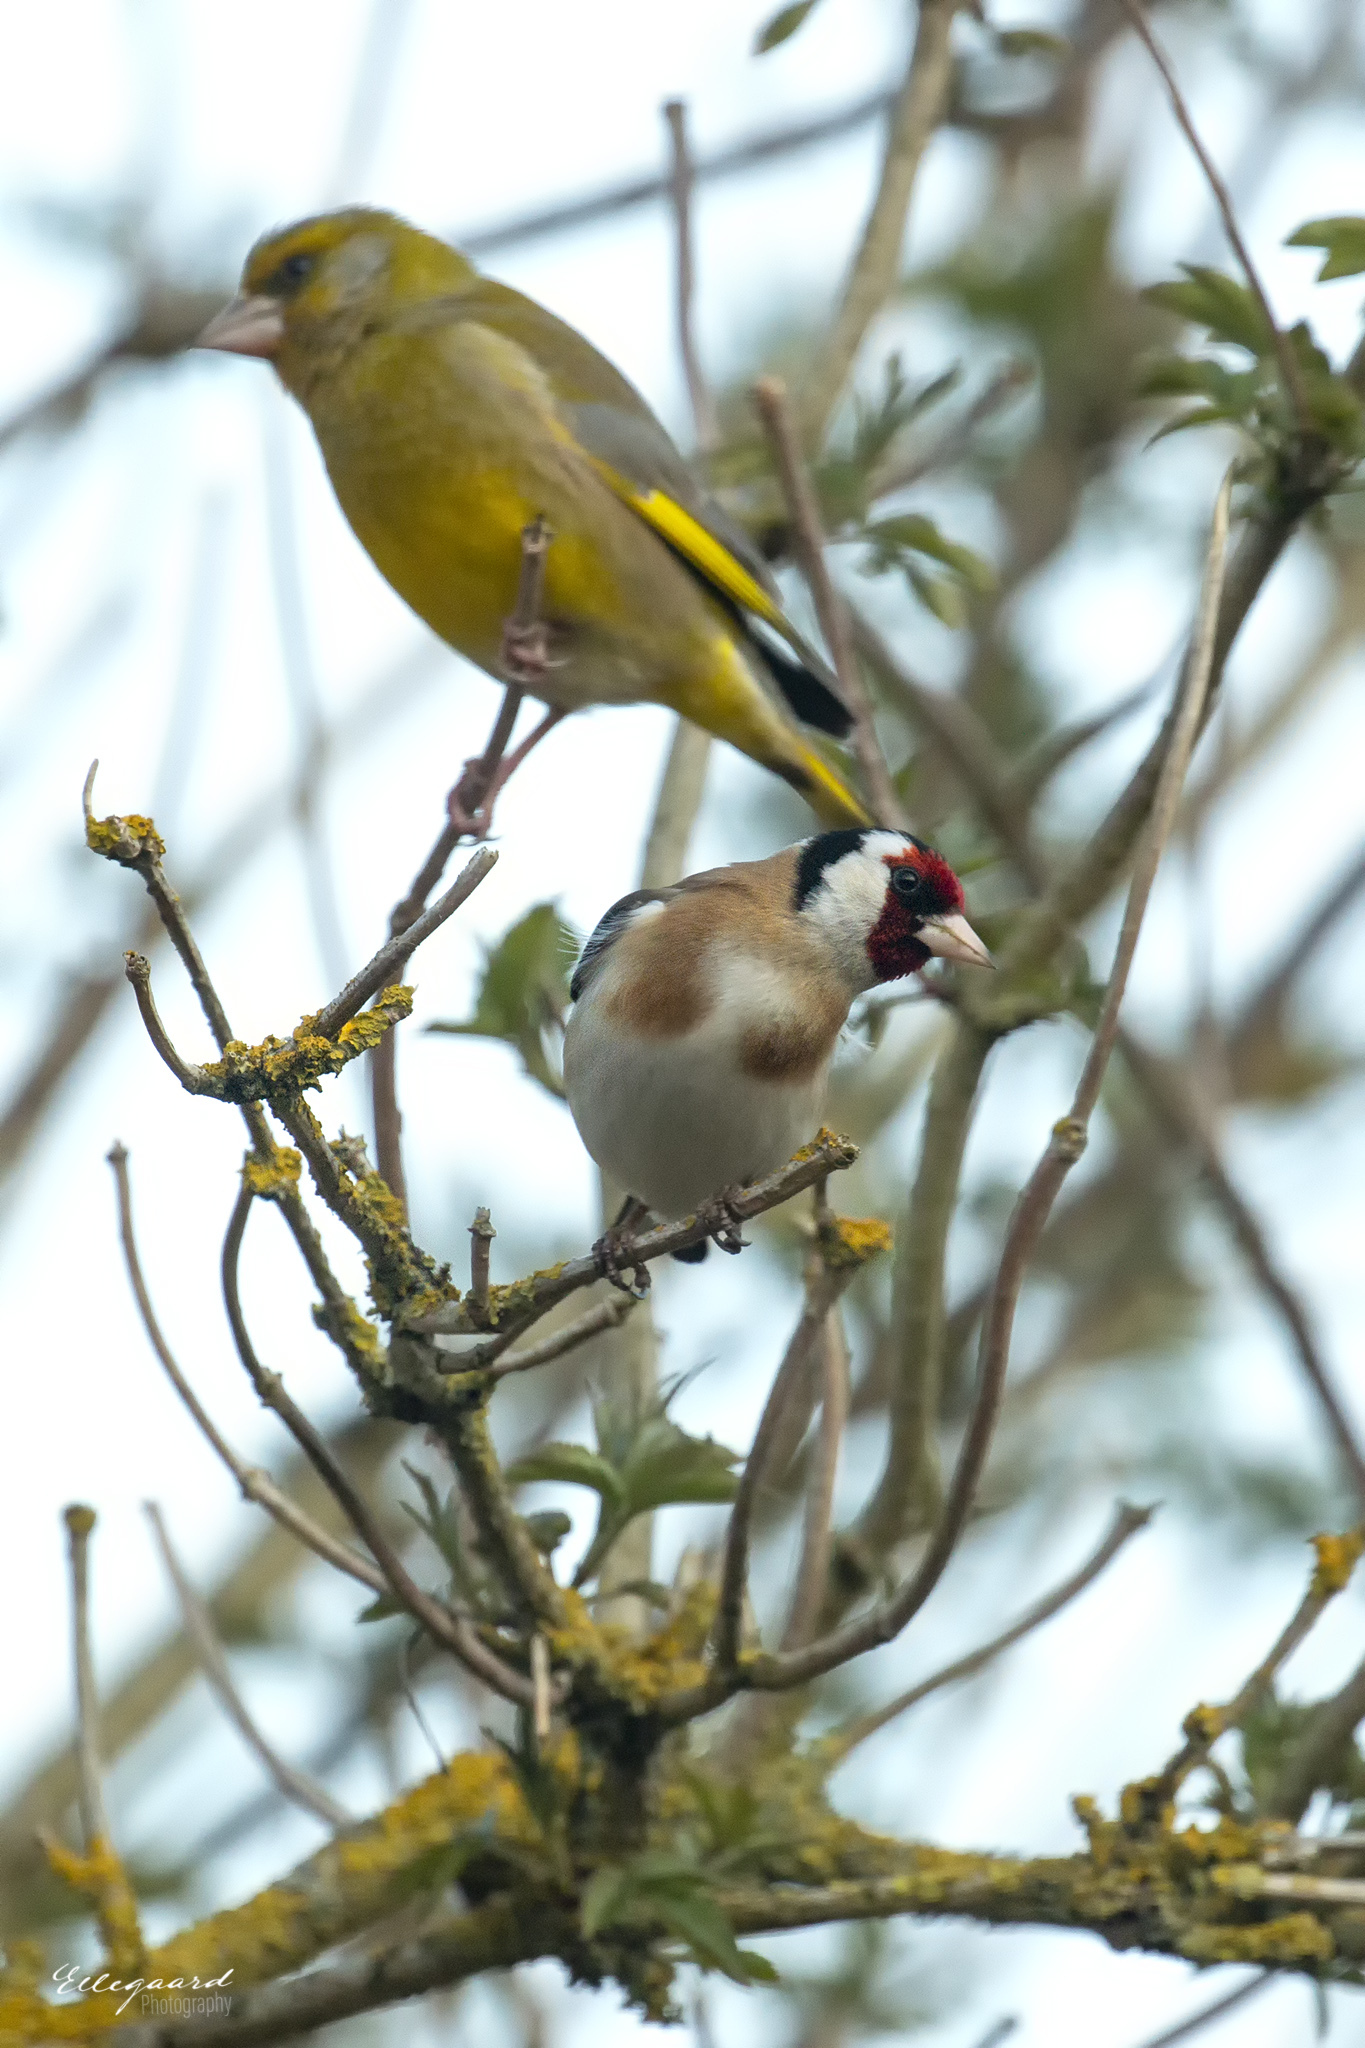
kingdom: Animalia
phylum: Chordata
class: Aves
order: Passeriformes
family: Fringillidae
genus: Carduelis
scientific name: Carduelis carduelis
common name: European goldfinch
